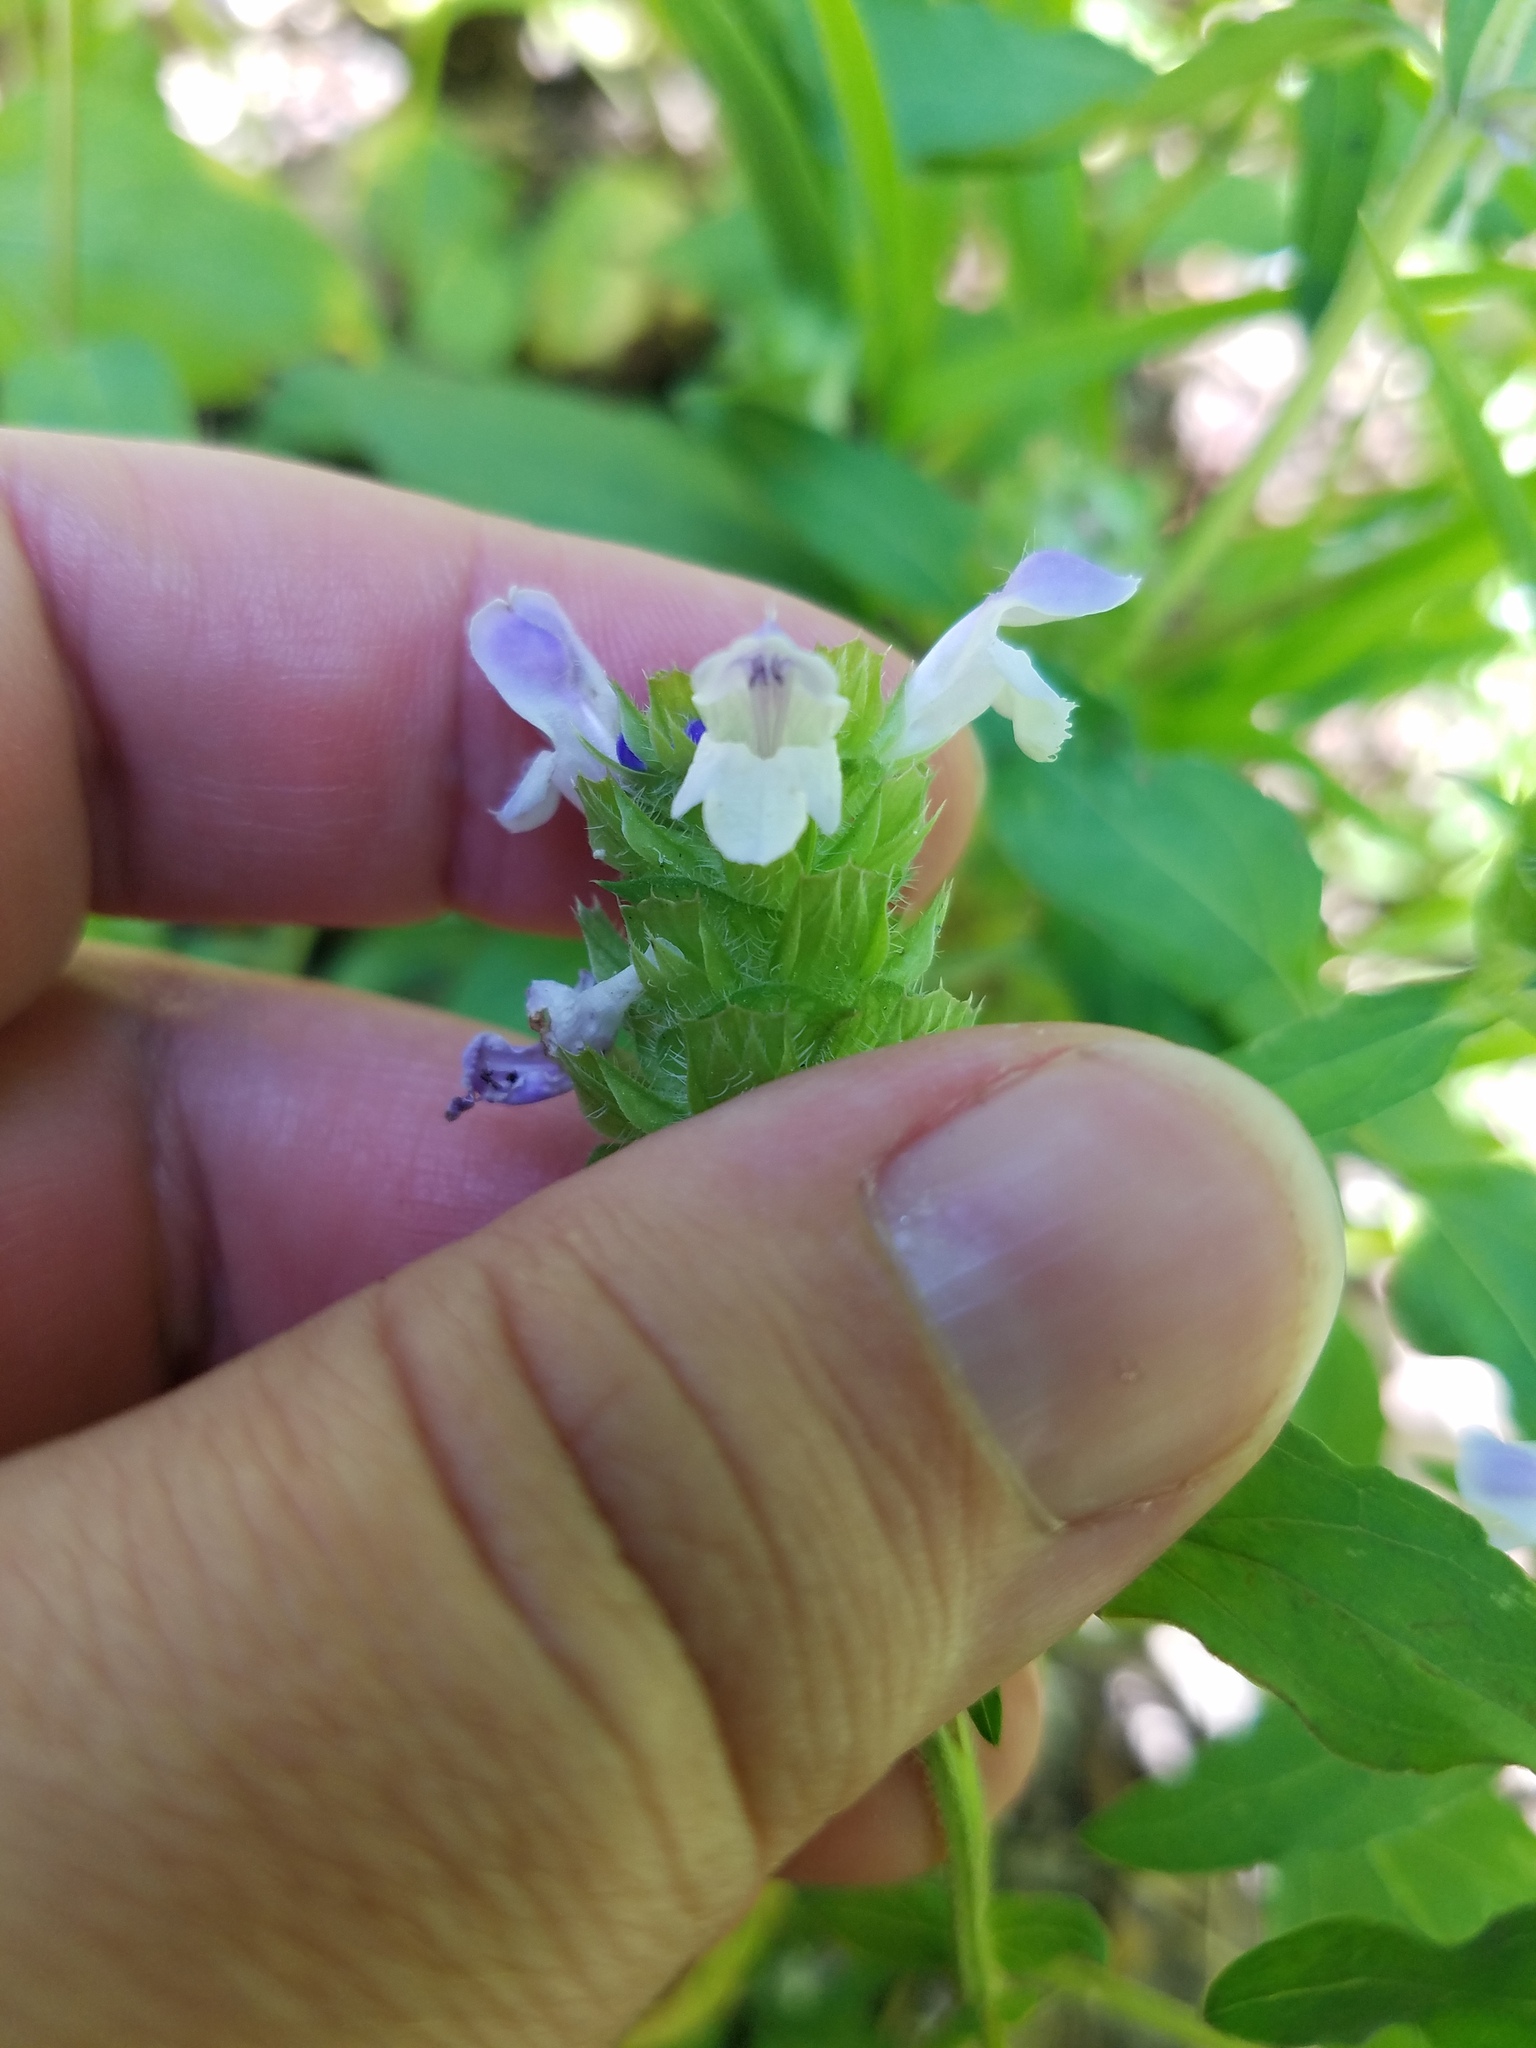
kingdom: Plantae
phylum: Tracheophyta
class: Magnoliopsida
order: Lamiales
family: Lamiaceae
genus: Prunella
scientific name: Prunella vulgaris
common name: Heal-all
